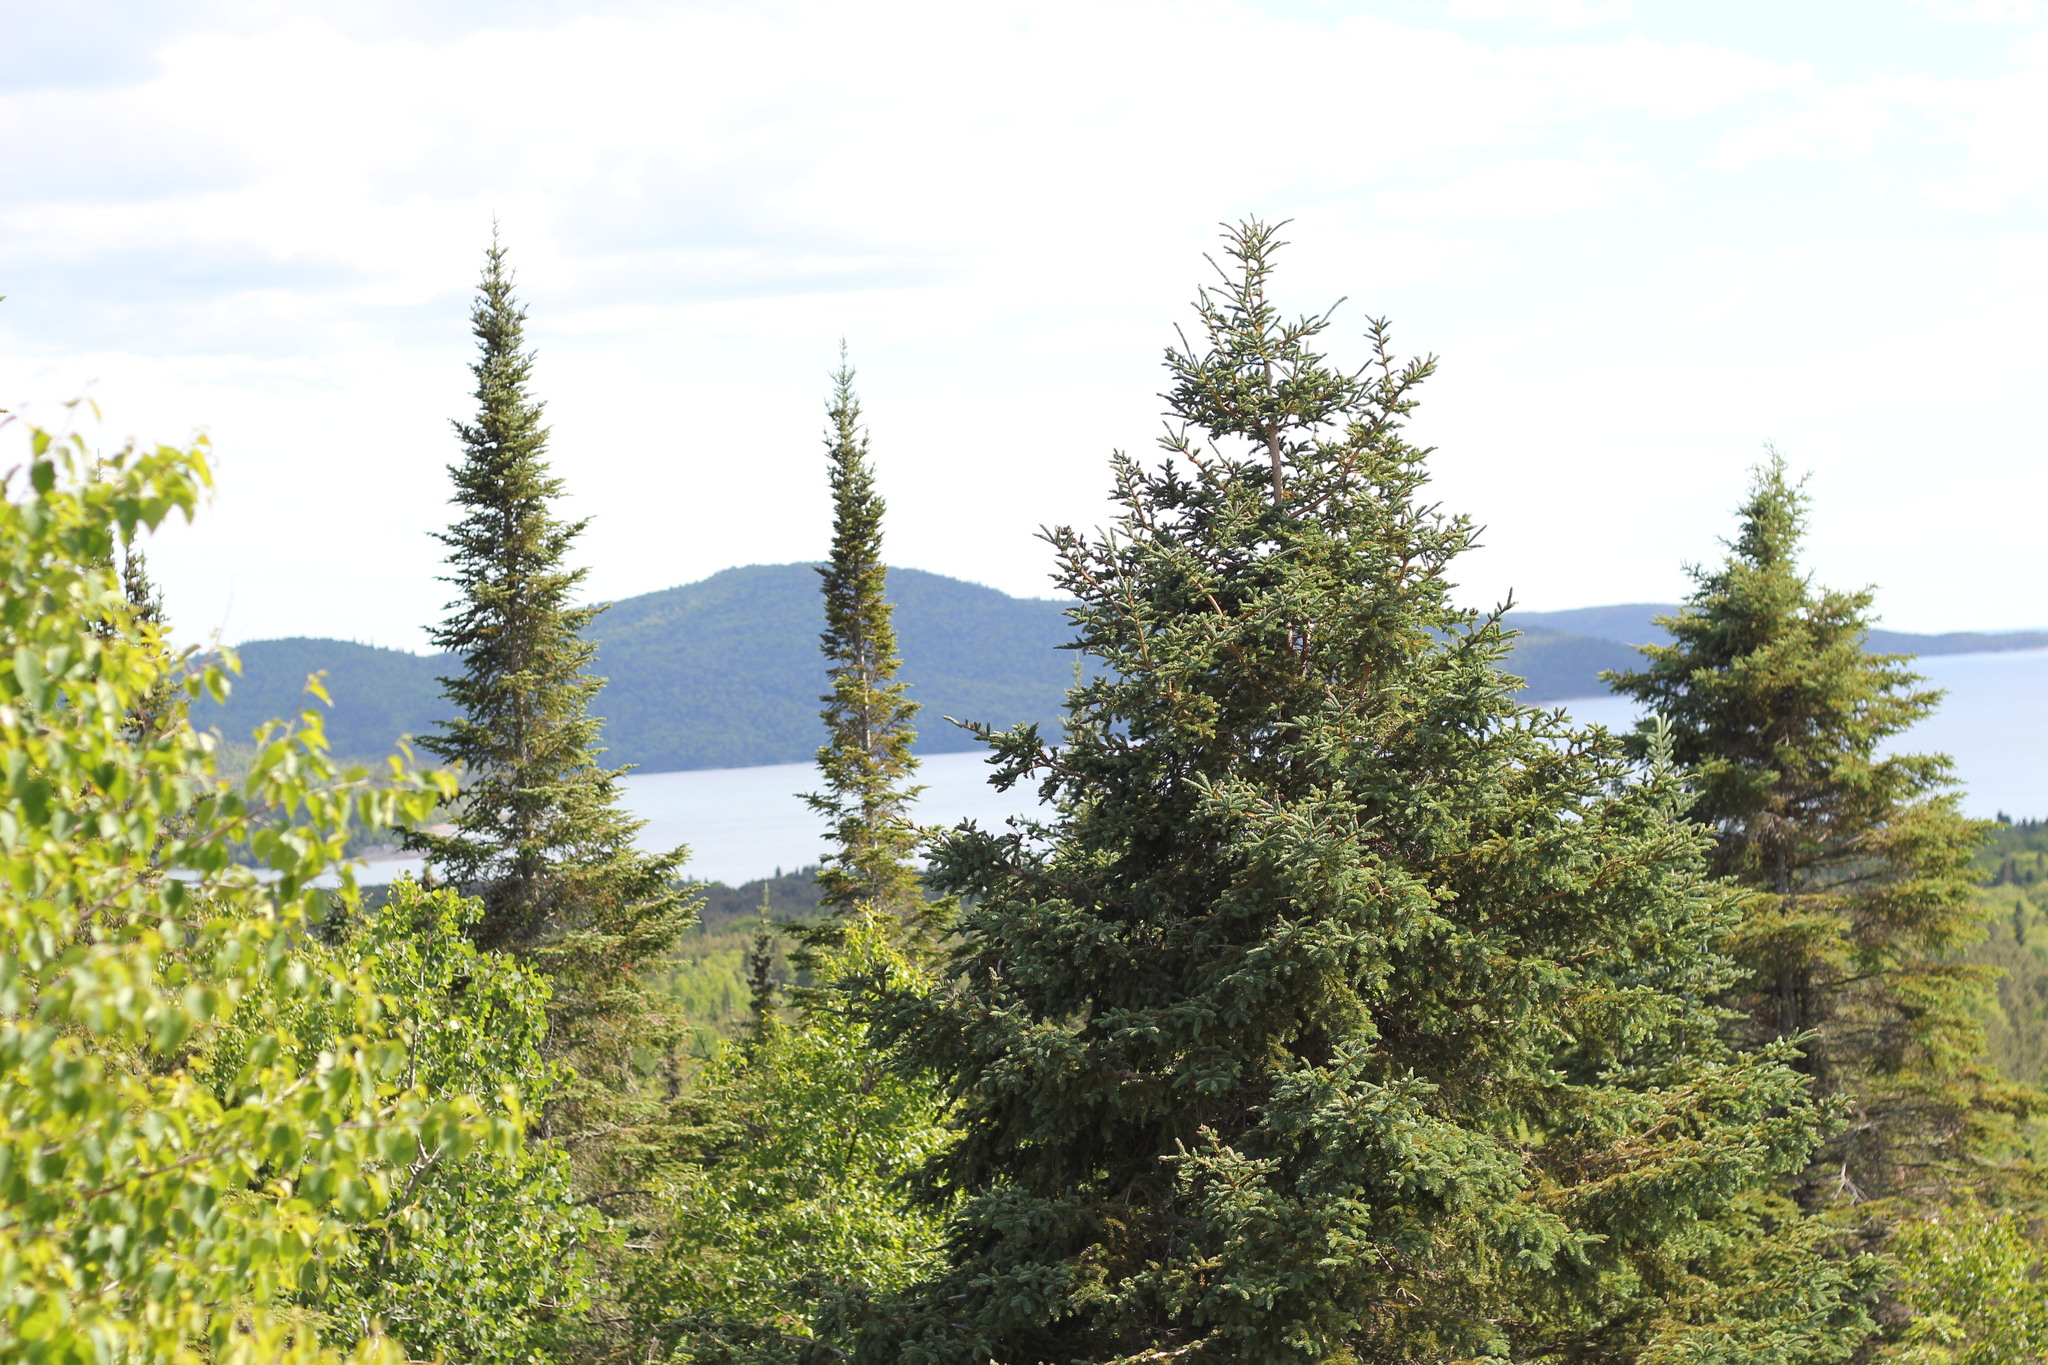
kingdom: Plantae
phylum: Tracheophyta
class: Pinopsida
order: Pinales
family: Pinaceae
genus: Picea
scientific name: Picea glauca
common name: White spruce
